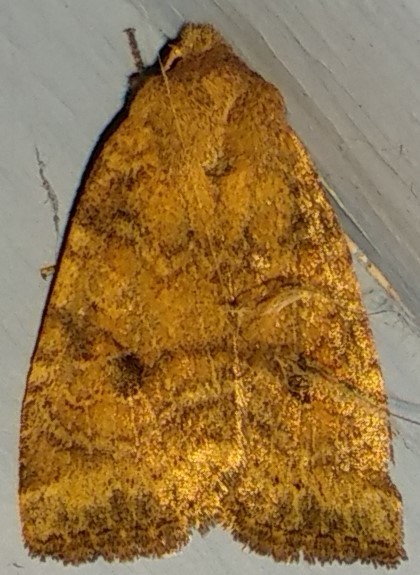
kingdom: Animalia
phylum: Arthropoda
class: Insecta
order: Lepidoptera
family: Noctuidae
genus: Anathix
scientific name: Anathix puta
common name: Puta sallow
